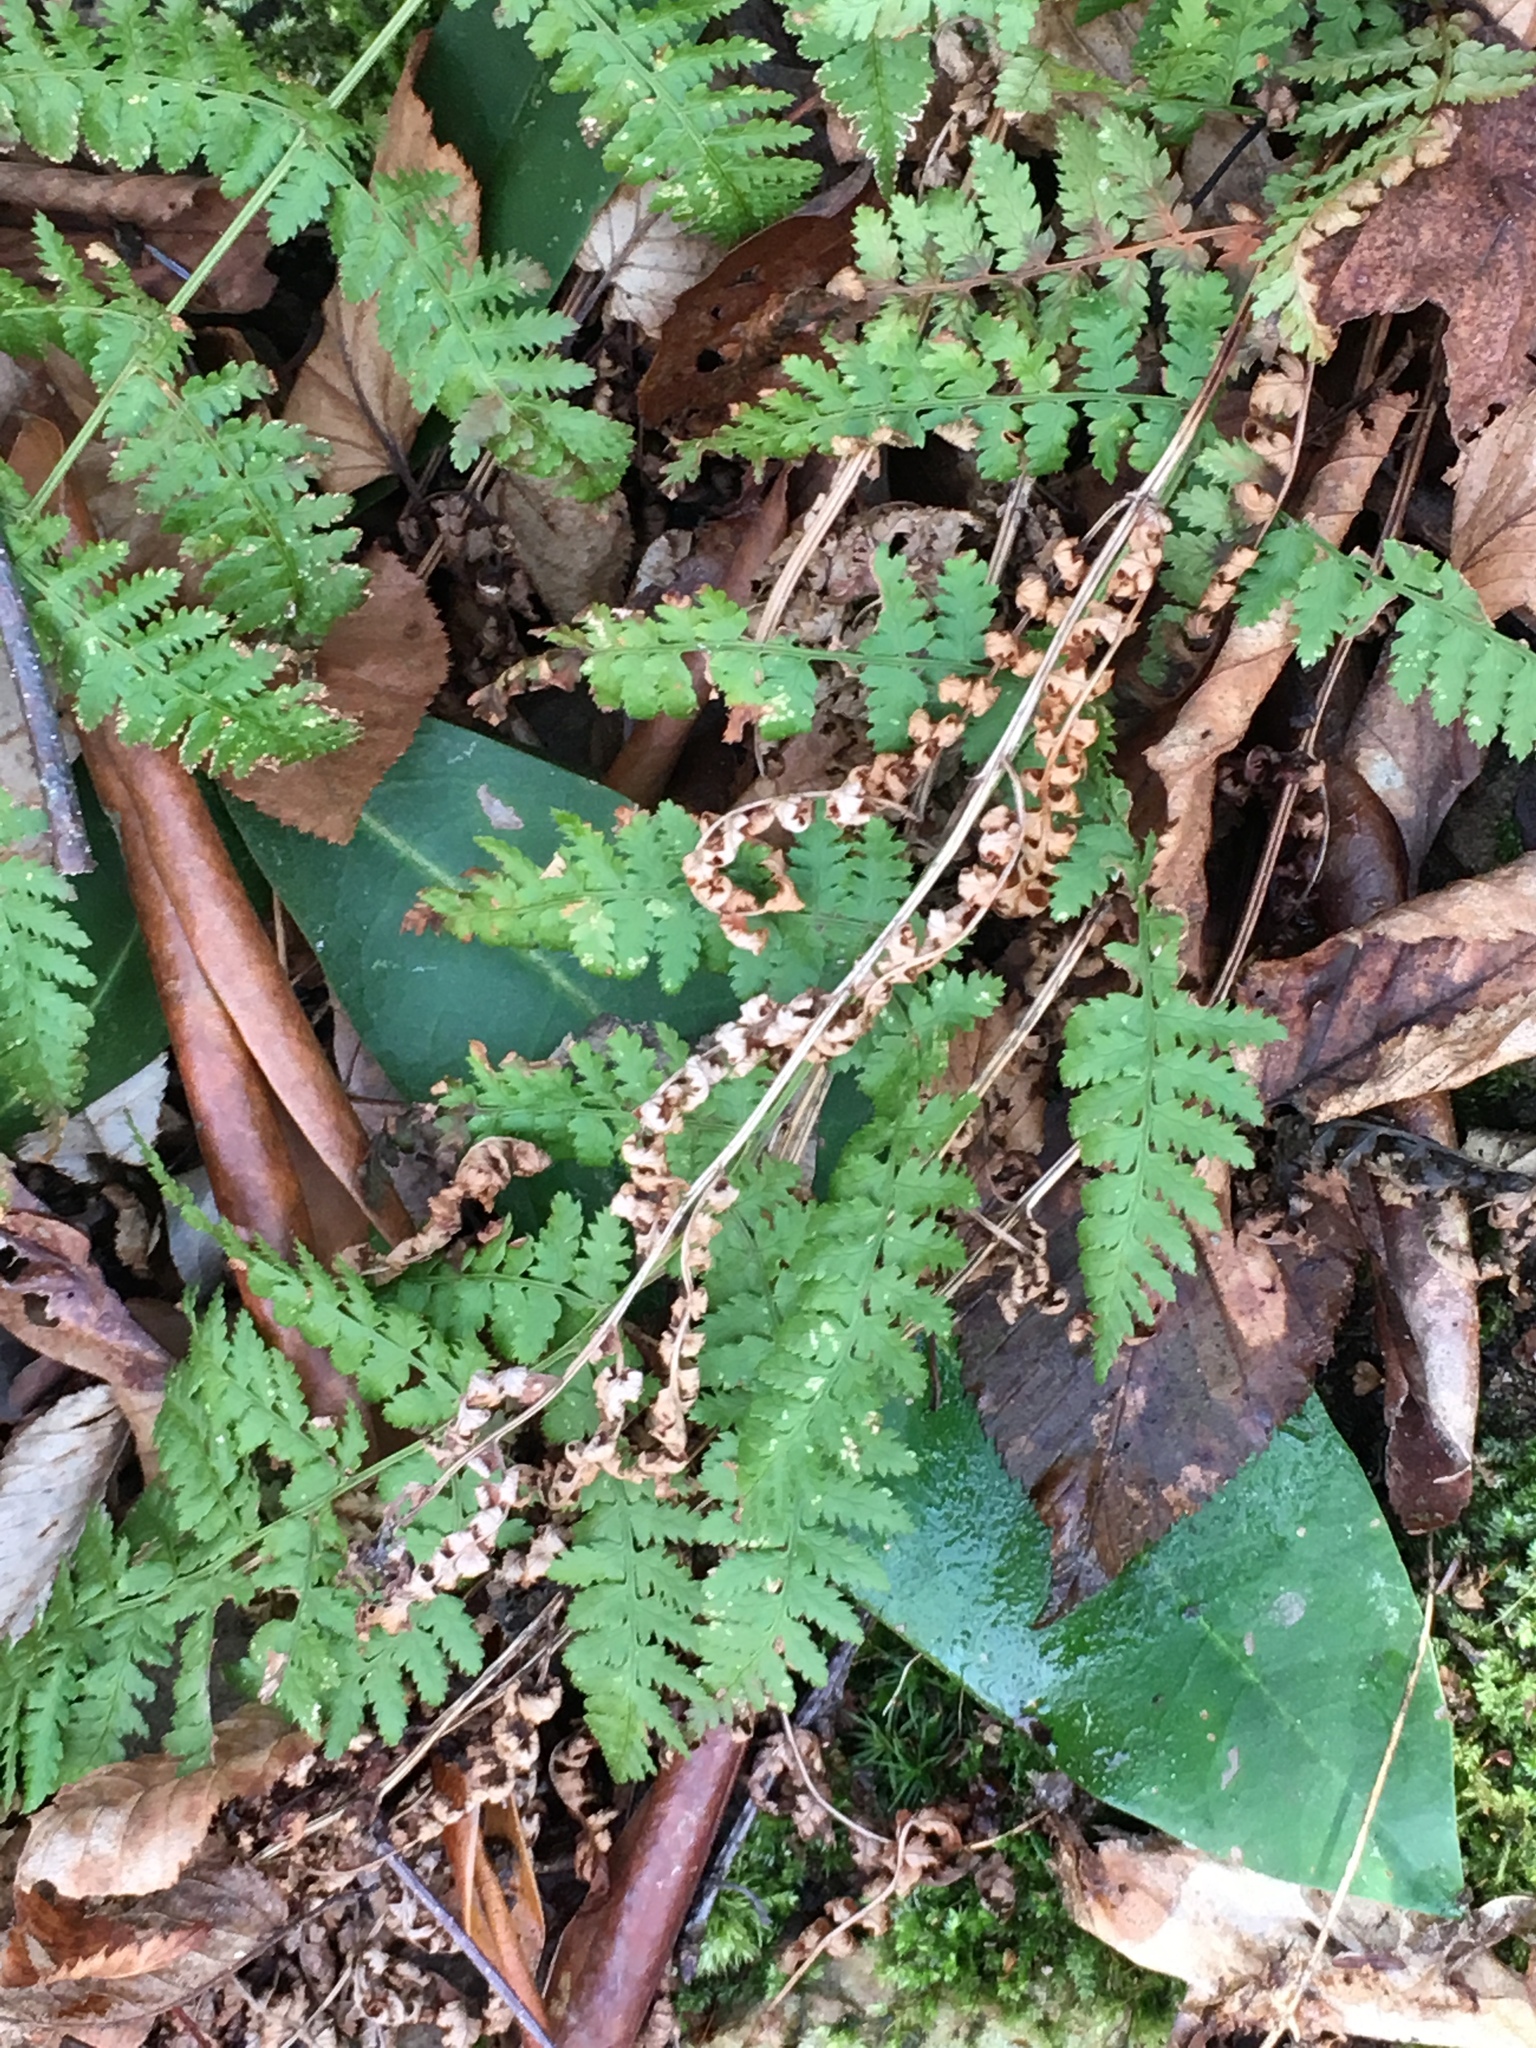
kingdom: Plantae
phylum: Tracheophyta
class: Polypodiopsida
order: Polypodiales
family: Dryopteridaceae
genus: Dryopteris
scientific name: Dryopteris intermedia
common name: Evergreen wood fern
